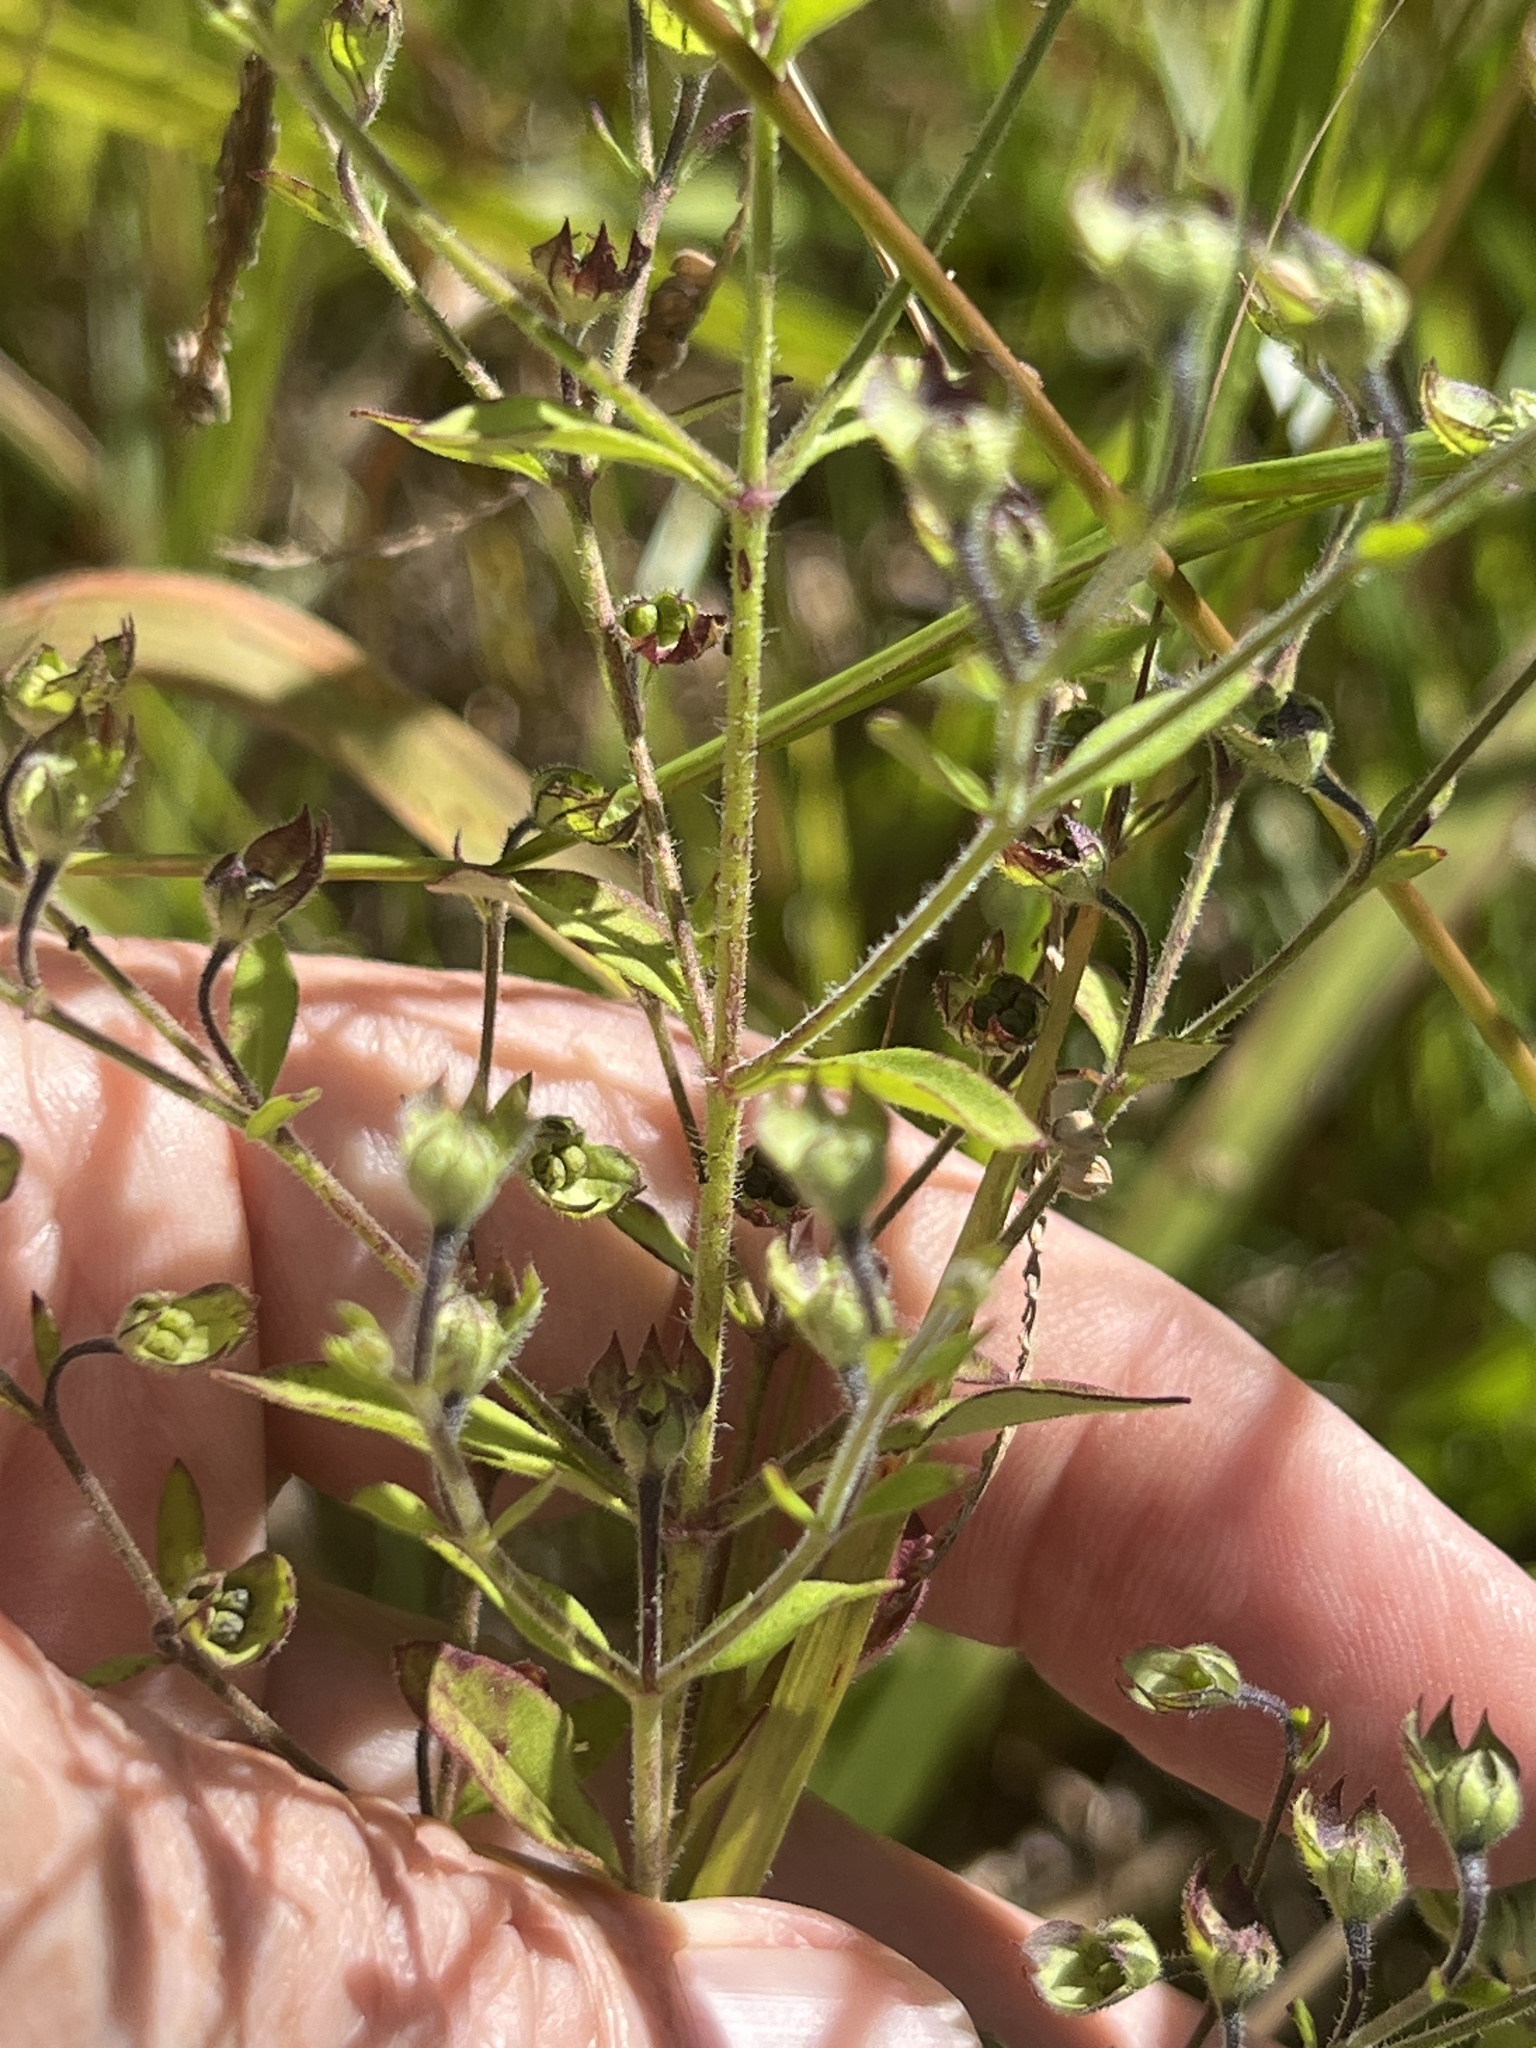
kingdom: Plantae
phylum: Tracheophyta
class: Magnoliopsida
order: Lamiales
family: Lamiaceae
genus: Trichostema
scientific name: Trichostema dichotomum
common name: Bastard pennyroyal
